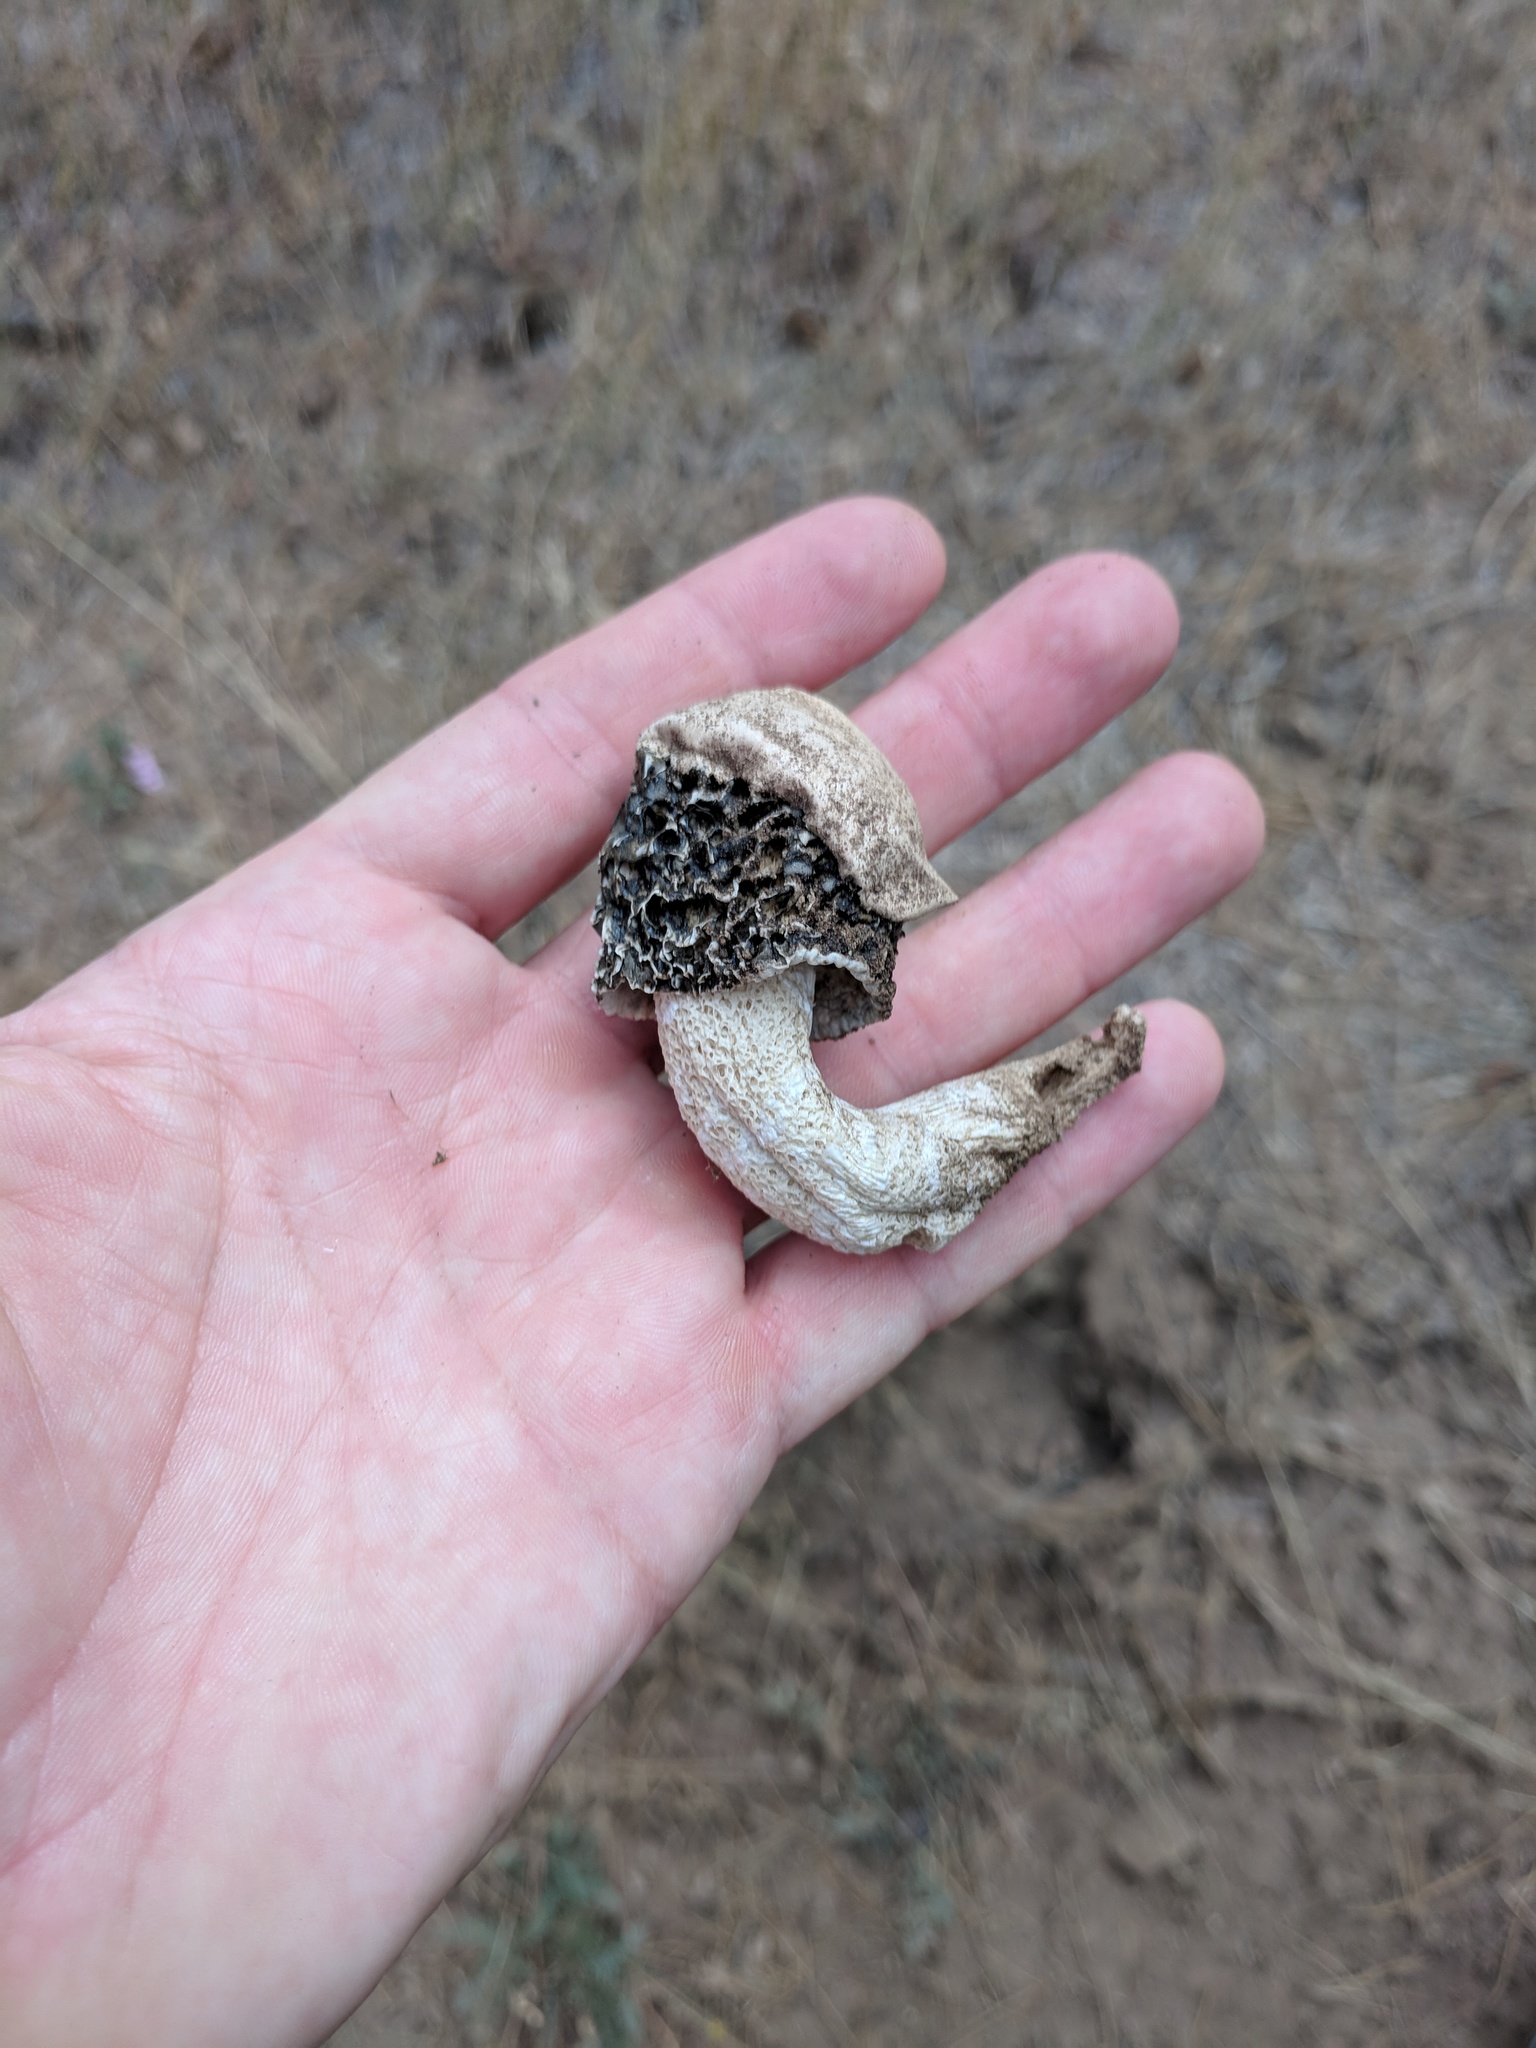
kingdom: Fungi
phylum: Basidiomycota
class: Agaricomycetes
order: Phallales
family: Phallaceae
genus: Phallus
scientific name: Phallus hadriani
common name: Sand stinkhorn
